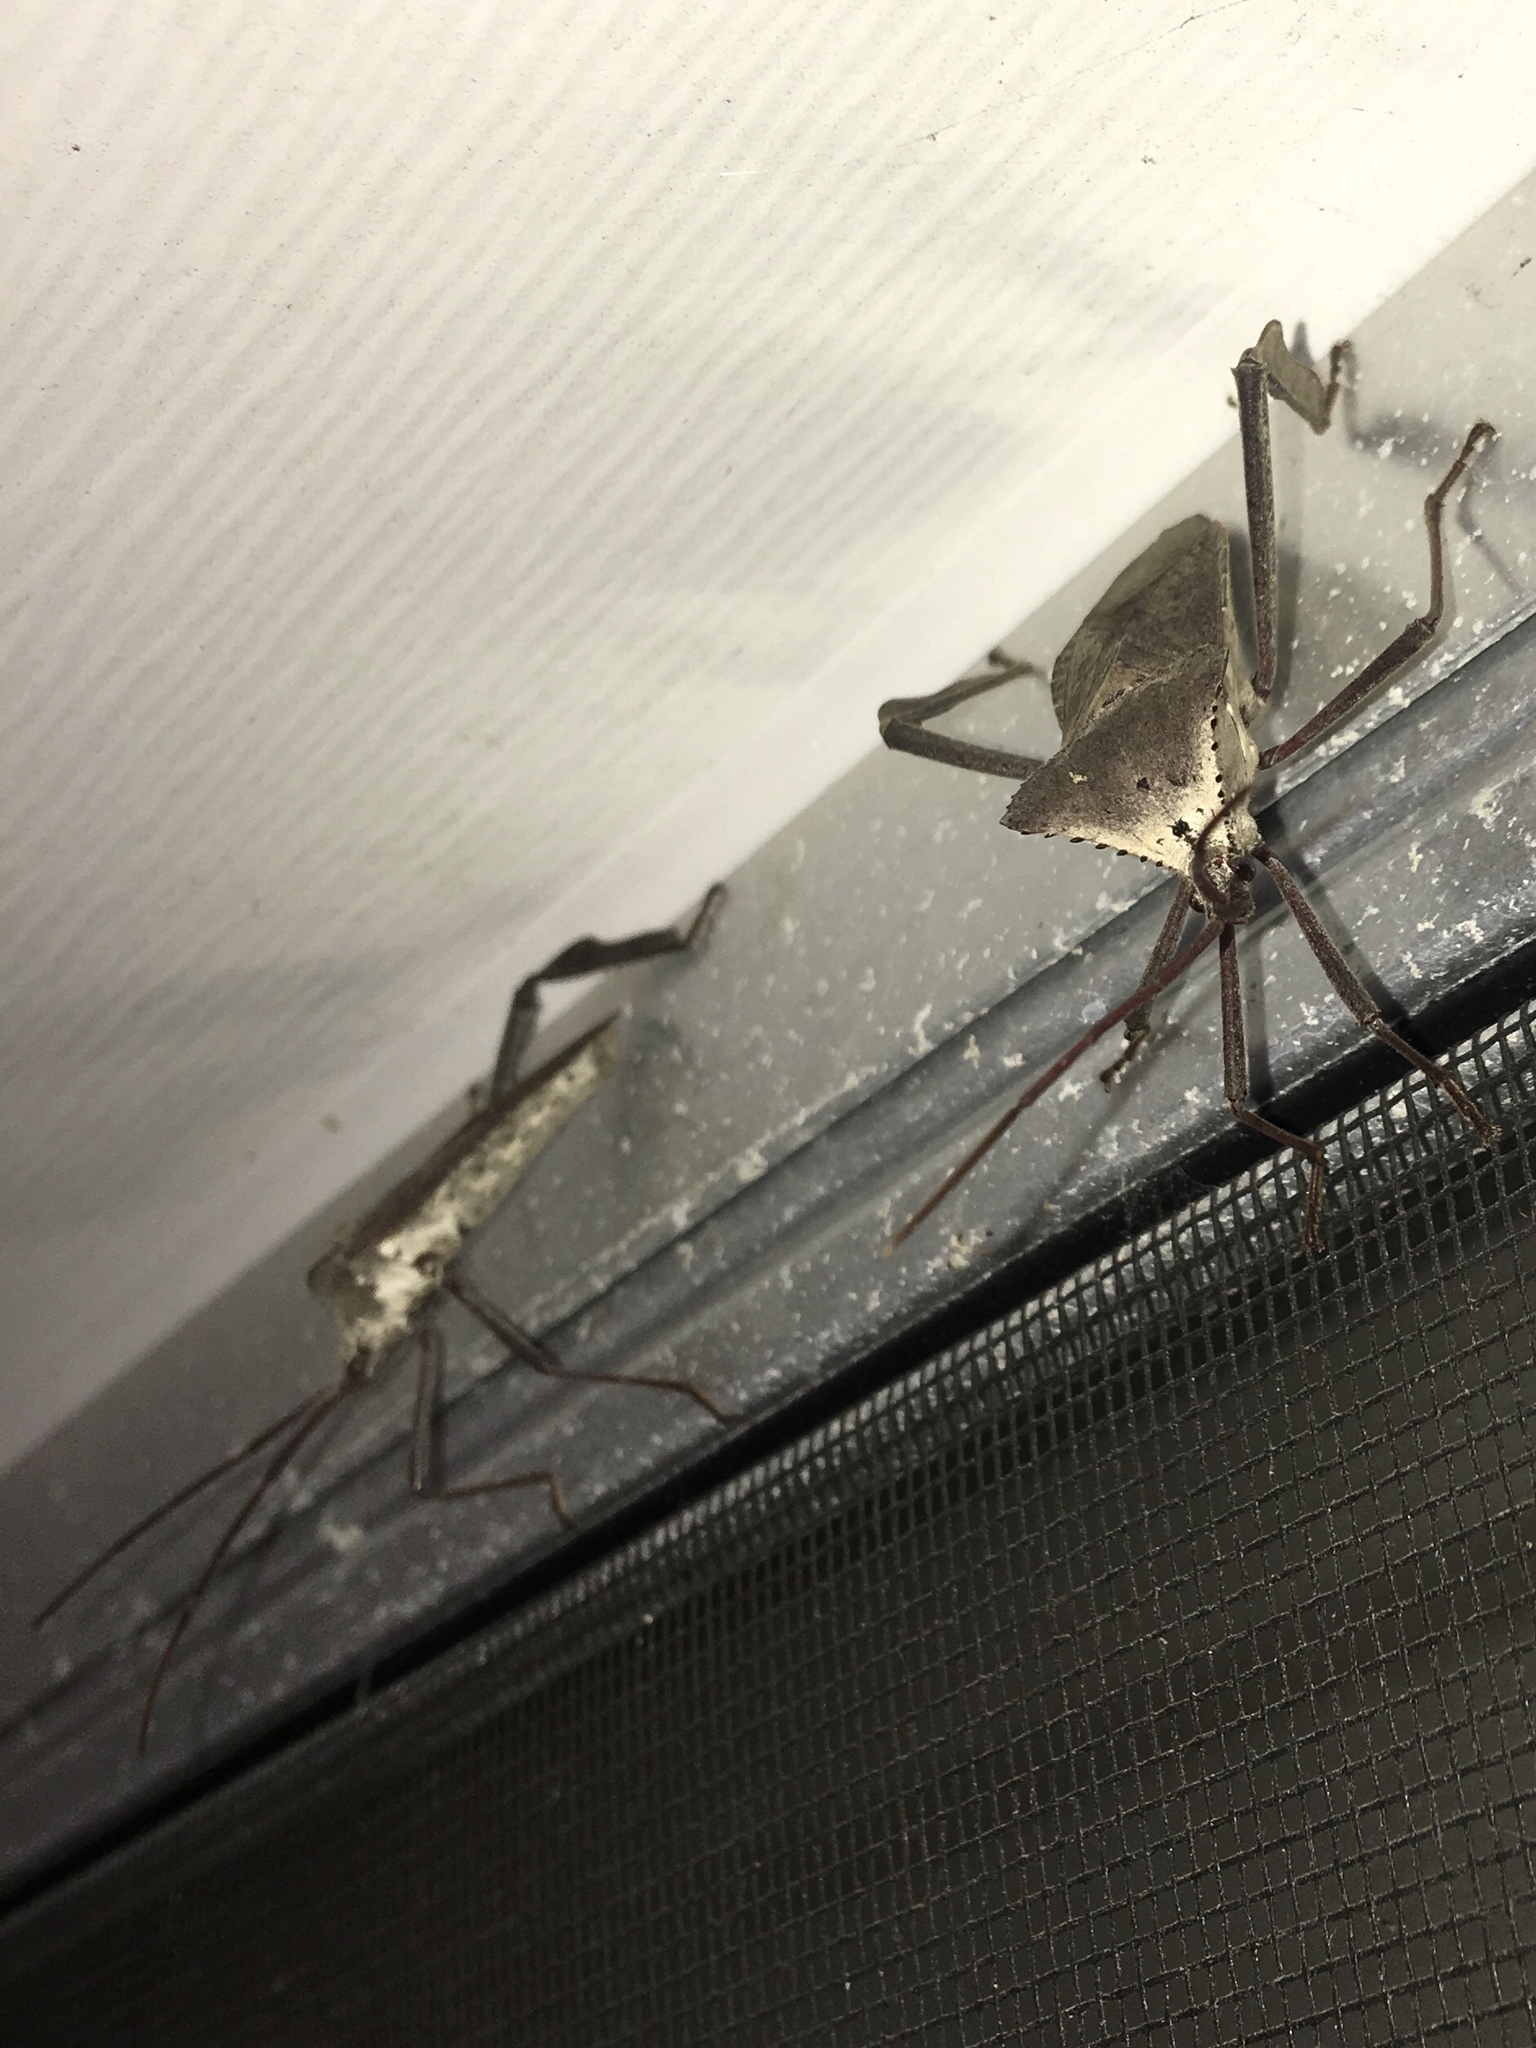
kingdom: Animalia
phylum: Arthropoda
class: Insecta
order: Hemiptera
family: Coreidae
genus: Acanthocephala
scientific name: Acanthocephala declivis
